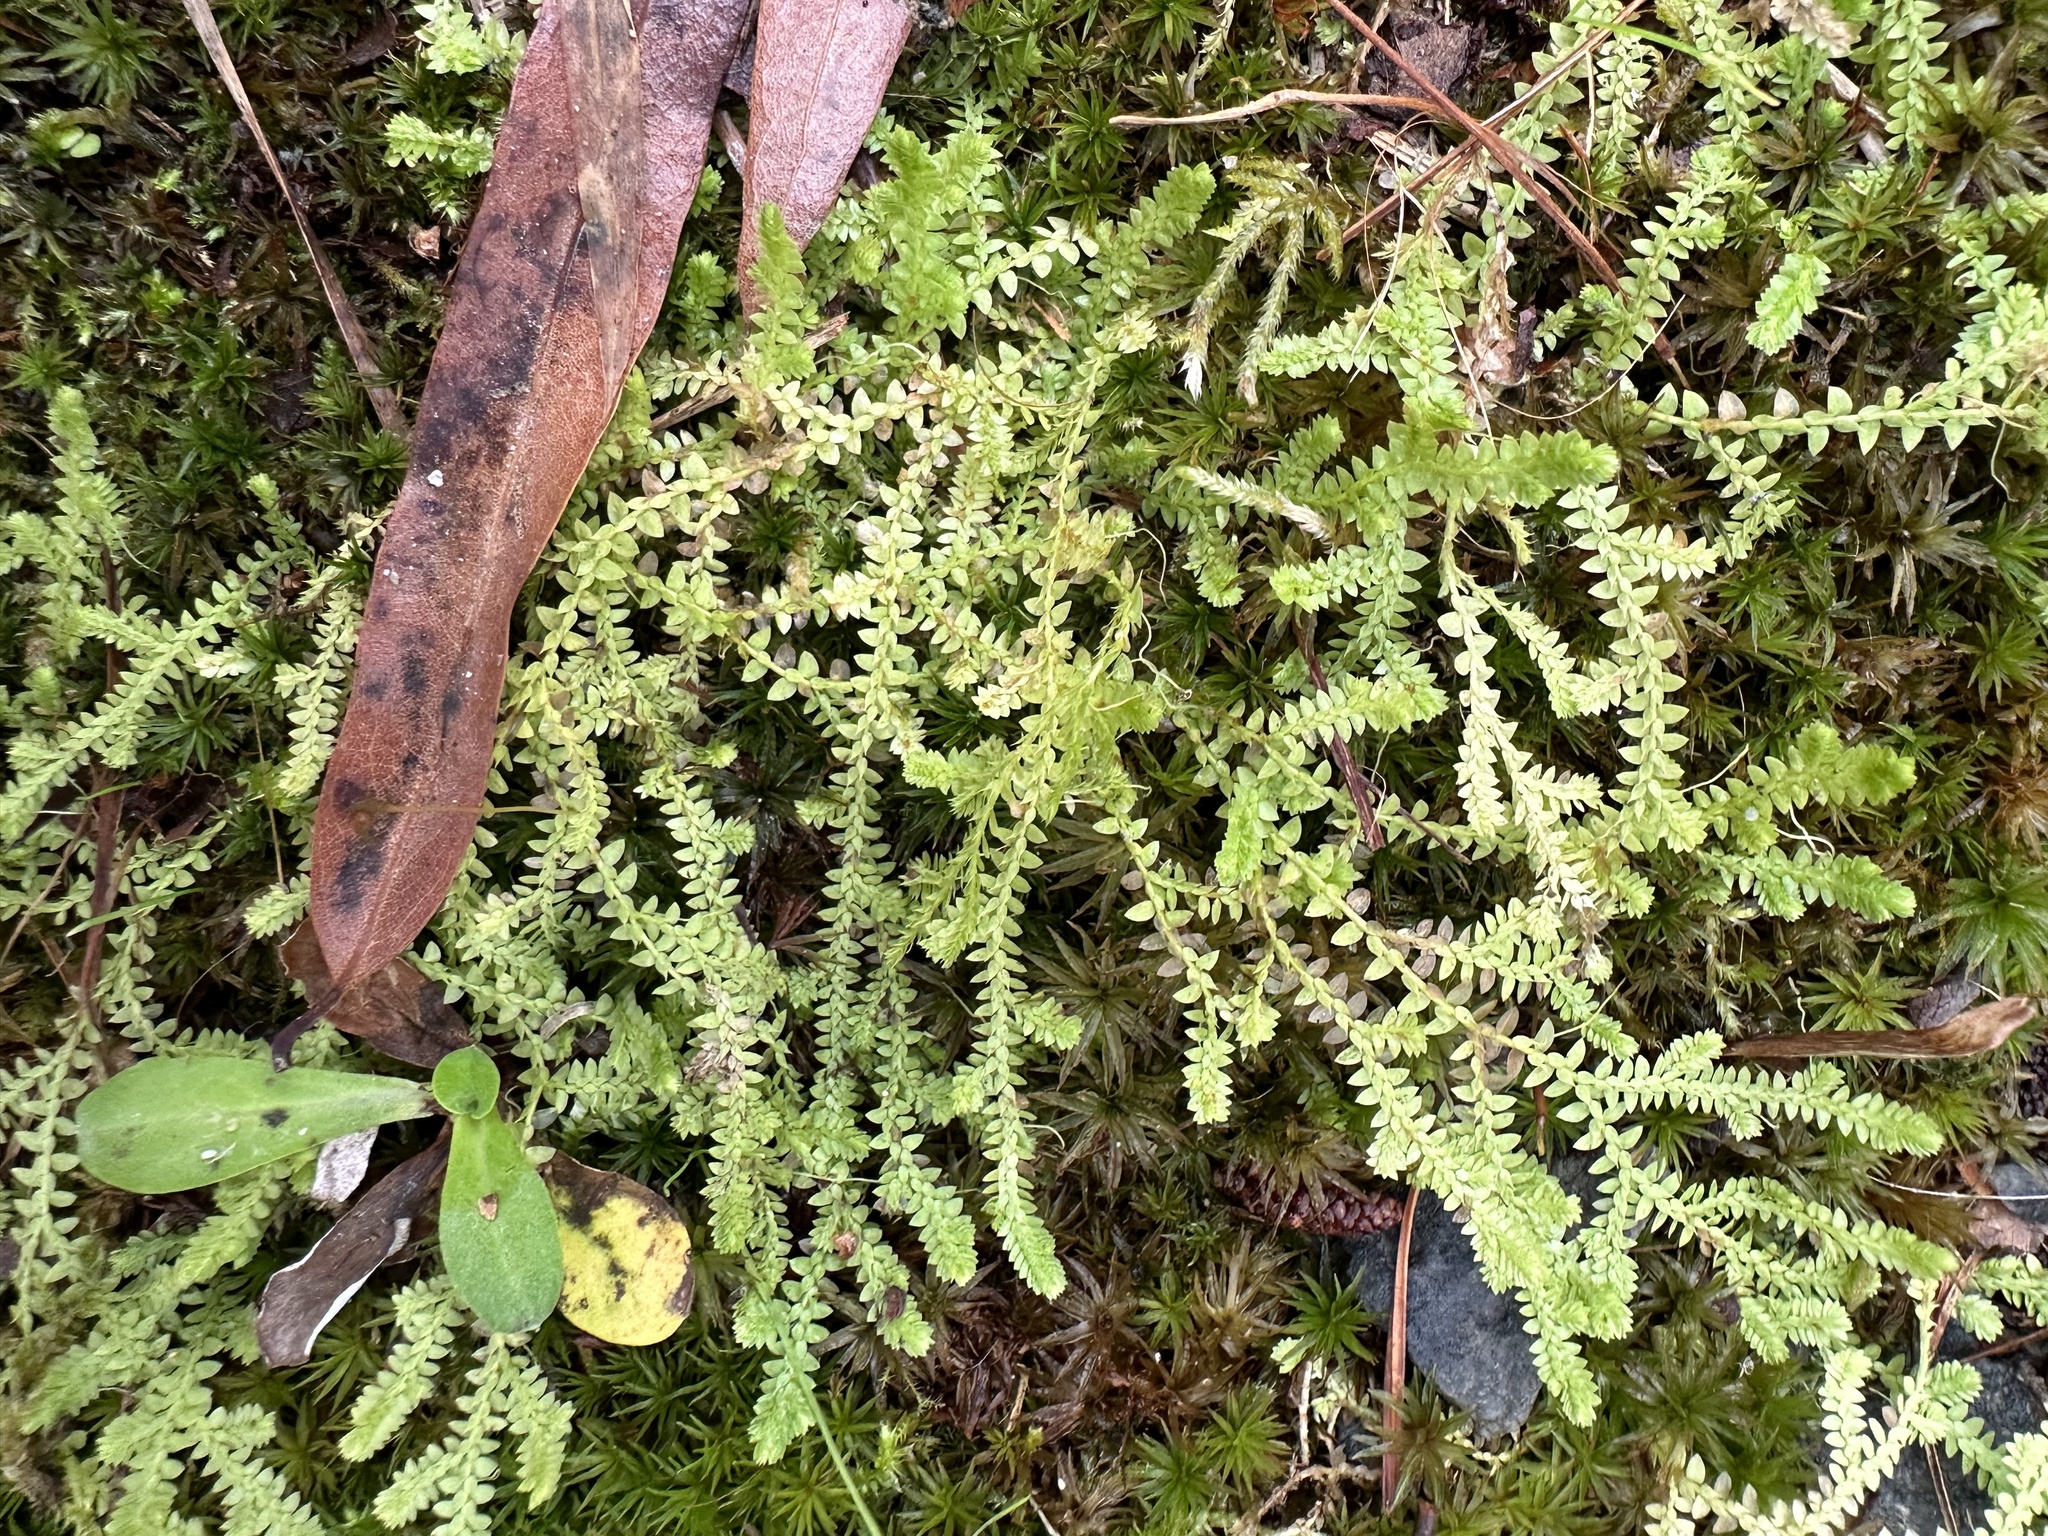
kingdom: Plantae
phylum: Tracheophyta
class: Lycopodiopsida
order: Selaginellales
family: Selaginellaceae
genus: Selaginella
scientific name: Selaginella apoda
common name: Creeping spikemoss
